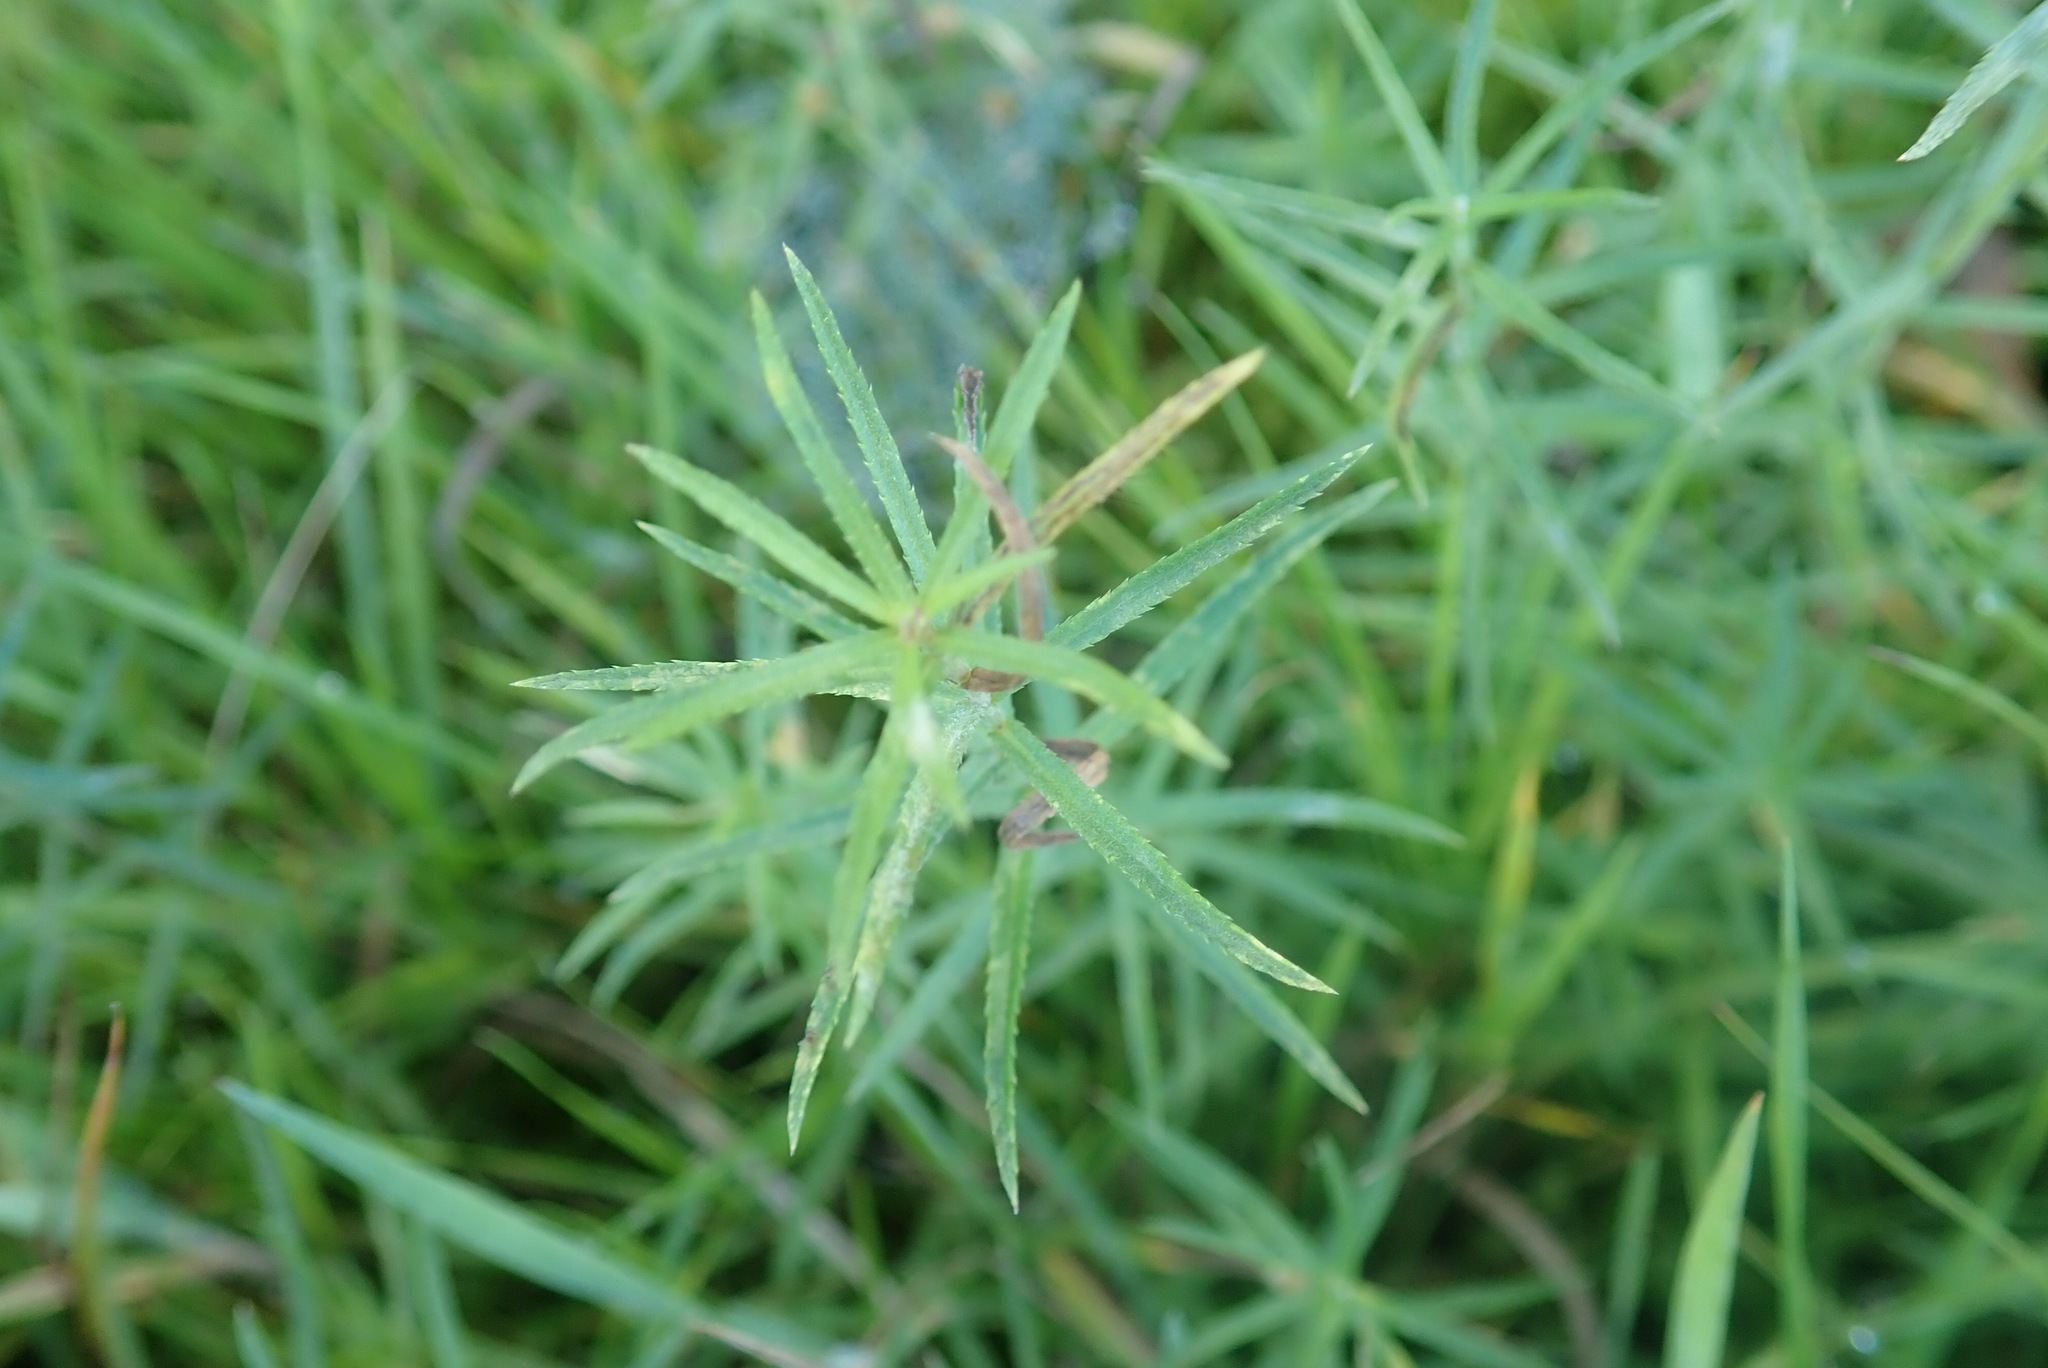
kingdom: Plantae
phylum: Tracheophyta
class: Magnoliopsida
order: Asterales
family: Asteraceae
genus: Achillea
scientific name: Achillea ptarmica
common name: Sneezeweed
